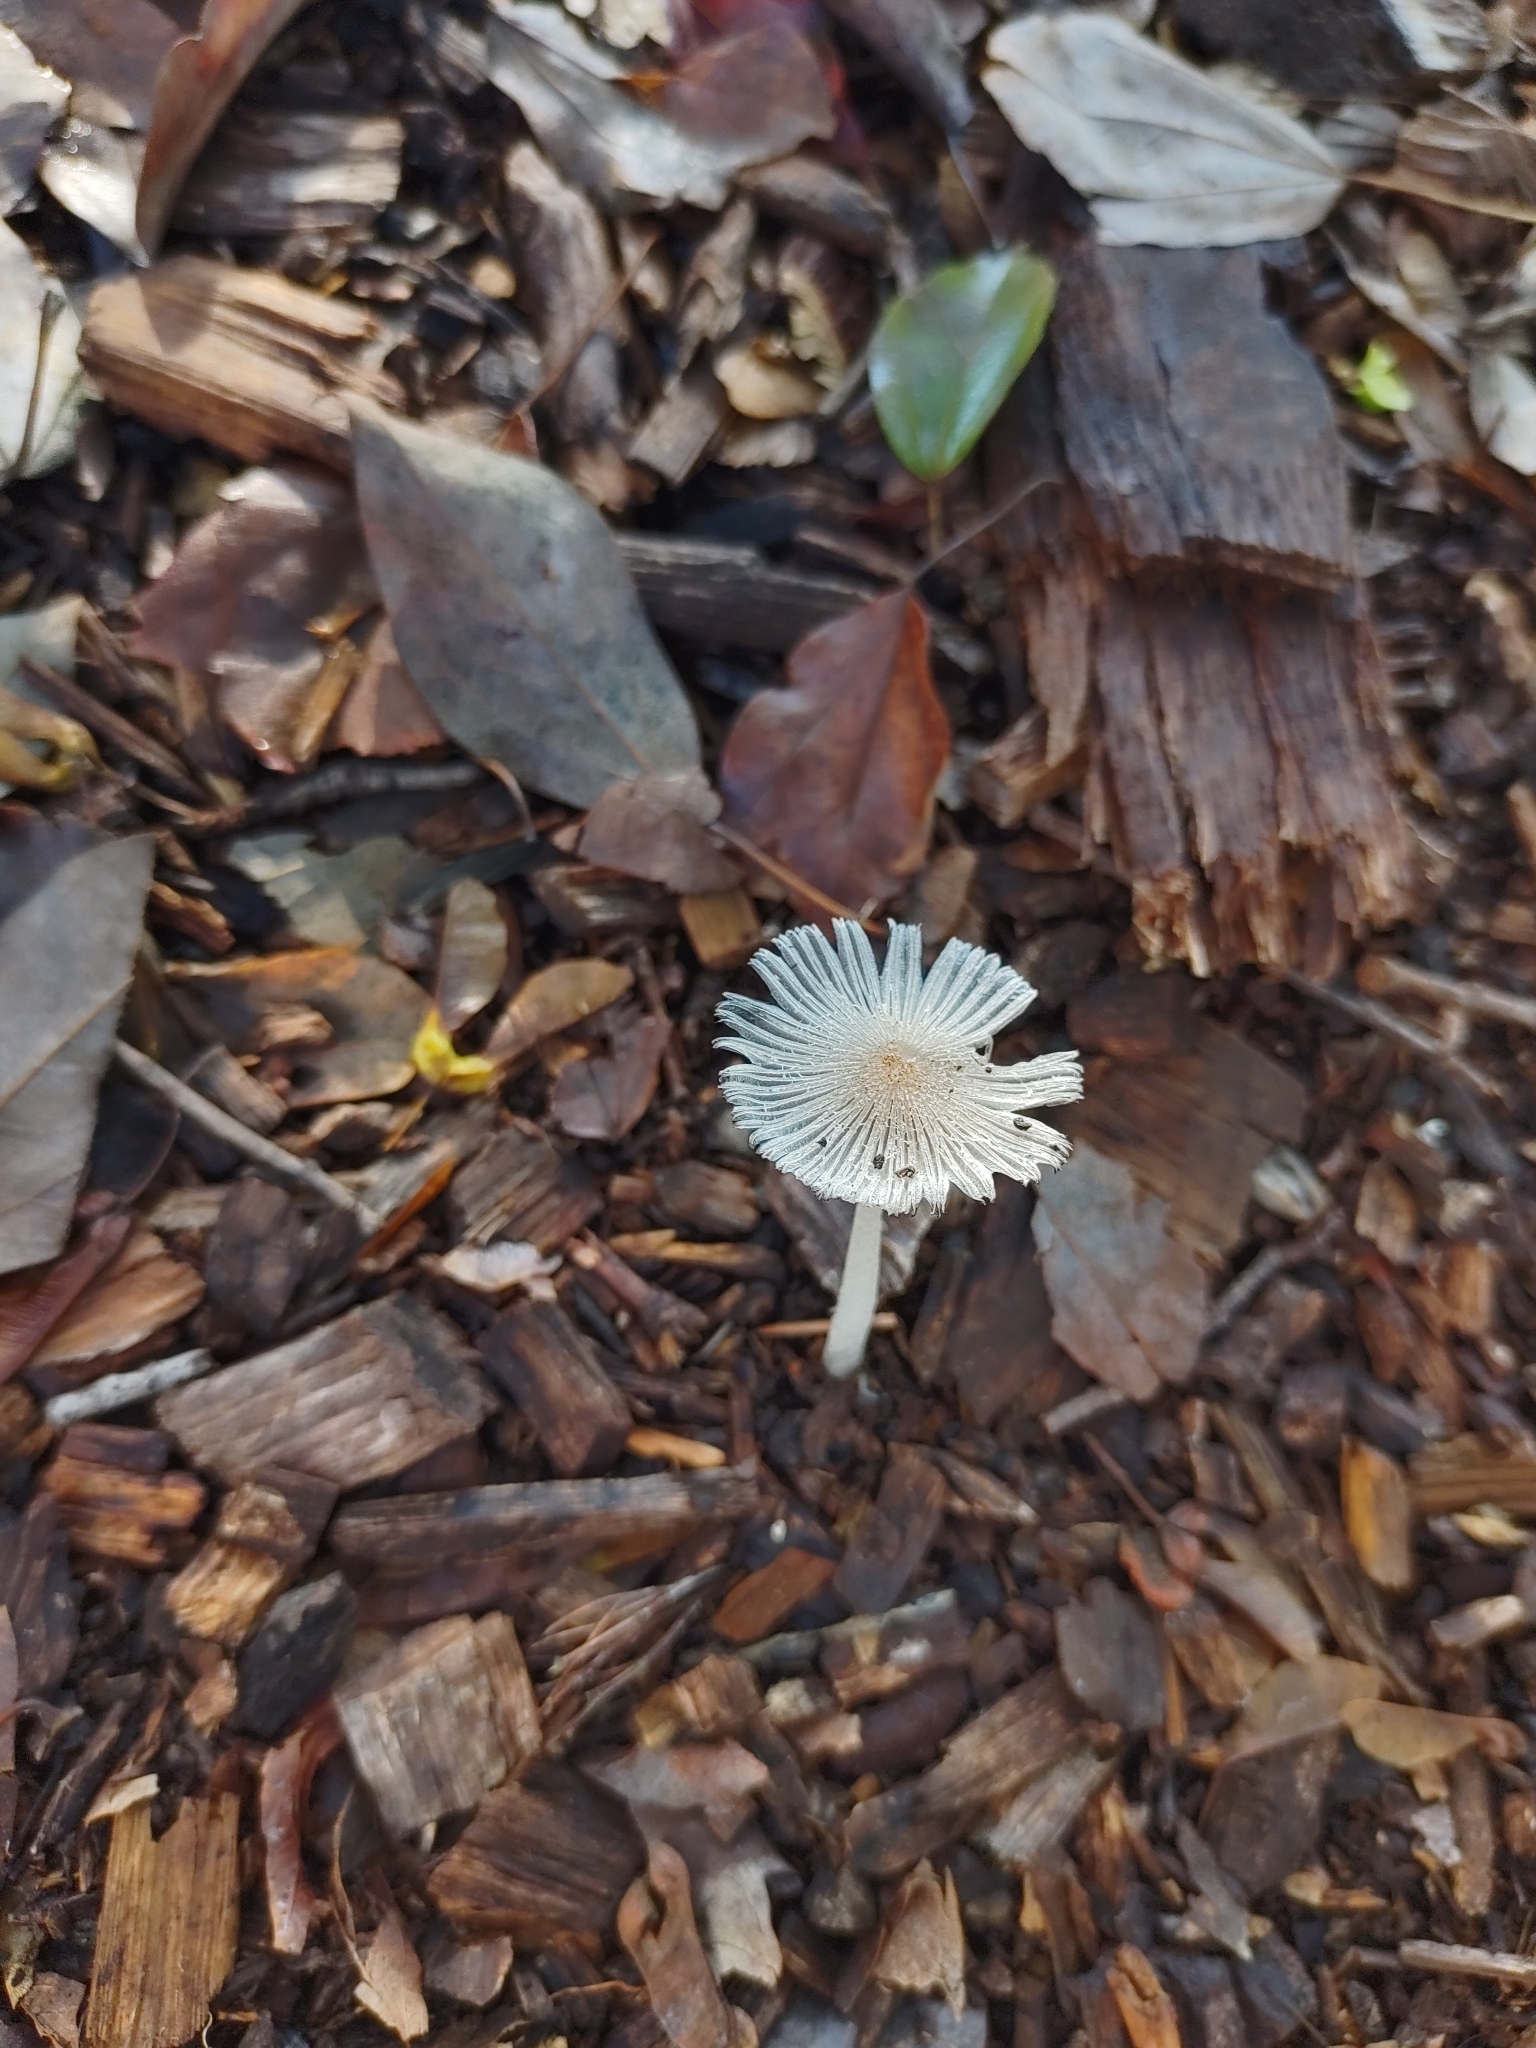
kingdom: Fungi
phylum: Basidiomycota
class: Agaricomycetes
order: Agaricales
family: Psathyrellaceae
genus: Coprinopsis
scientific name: Coprinopsis lagopus
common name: Hare'sfoot inkcap
